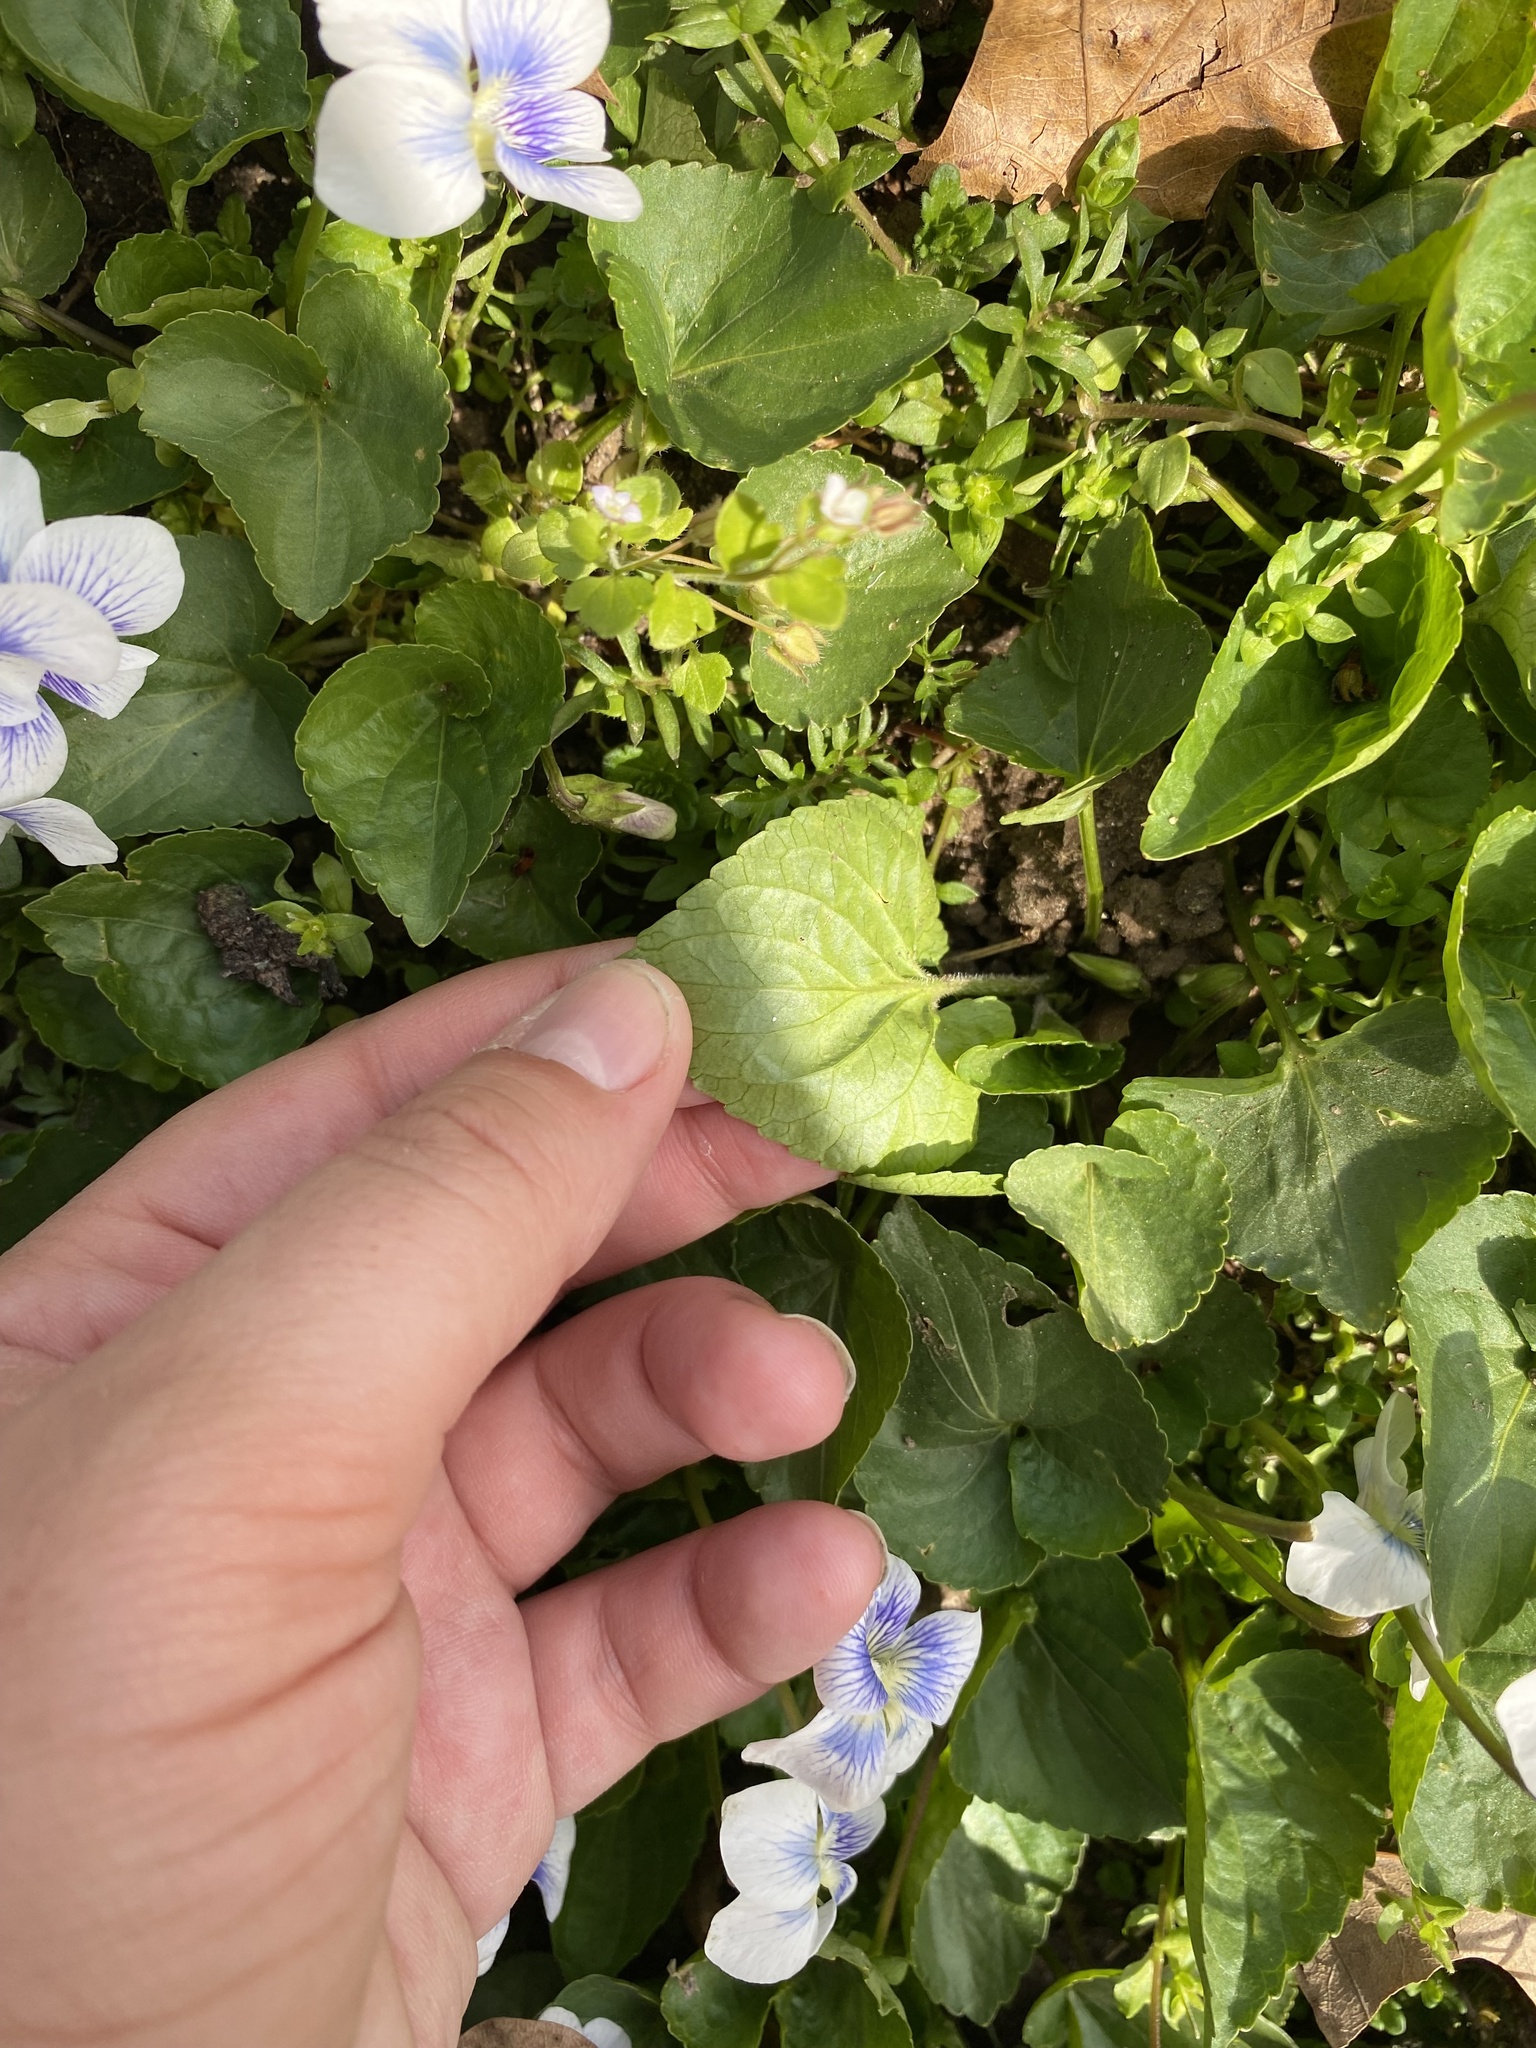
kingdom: Plantae
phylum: Tracheophyta
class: Magnoliopsida
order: Malpighiales
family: Violaceae
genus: Viola
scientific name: Viola sororia
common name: Dooryard violet
